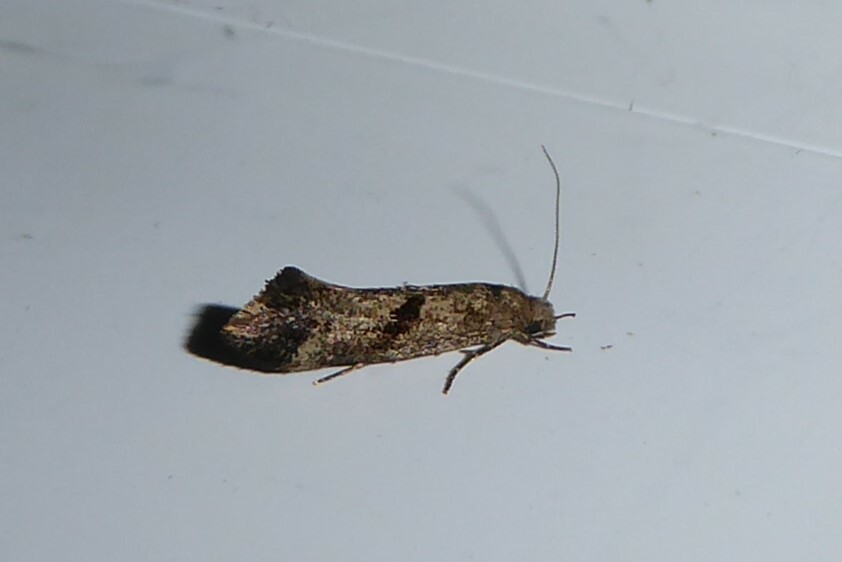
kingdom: Animalia
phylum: Arthropoda
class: Insecta
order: Lepidoptera
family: Tineidae
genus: Tinea
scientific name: Tinea mochlota
